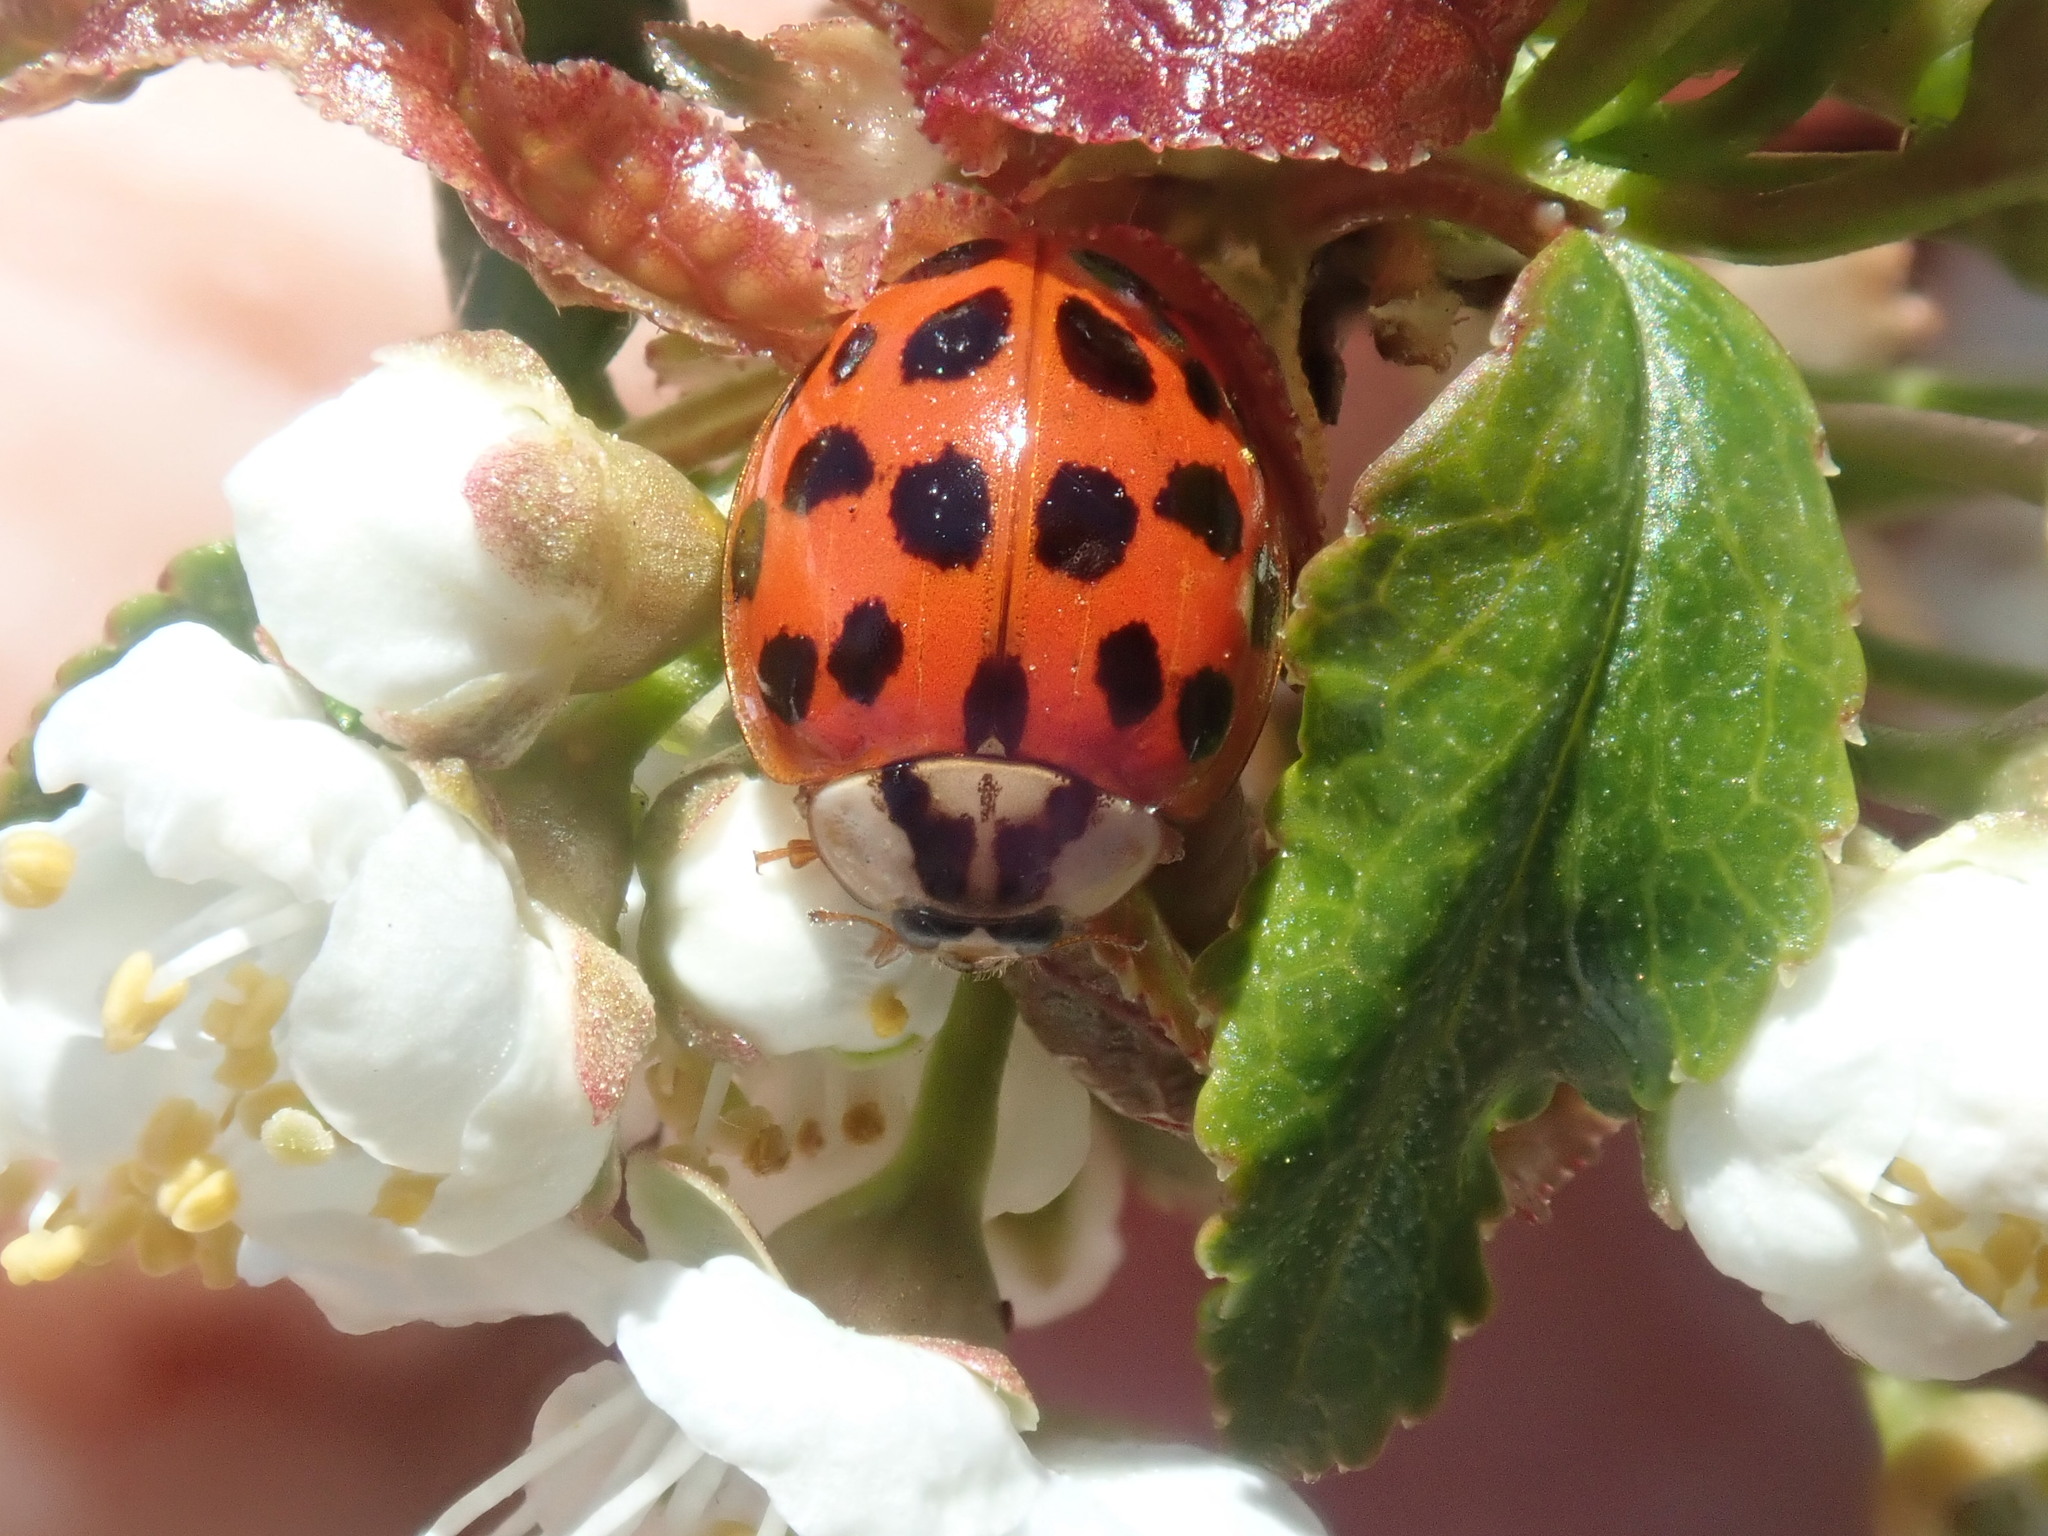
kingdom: Animalia
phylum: Arthropoda
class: Insecta
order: Coleoptera
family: Coccinellidae
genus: Harmonia
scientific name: Harmonia axyridis
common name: Harlequin ladybird
